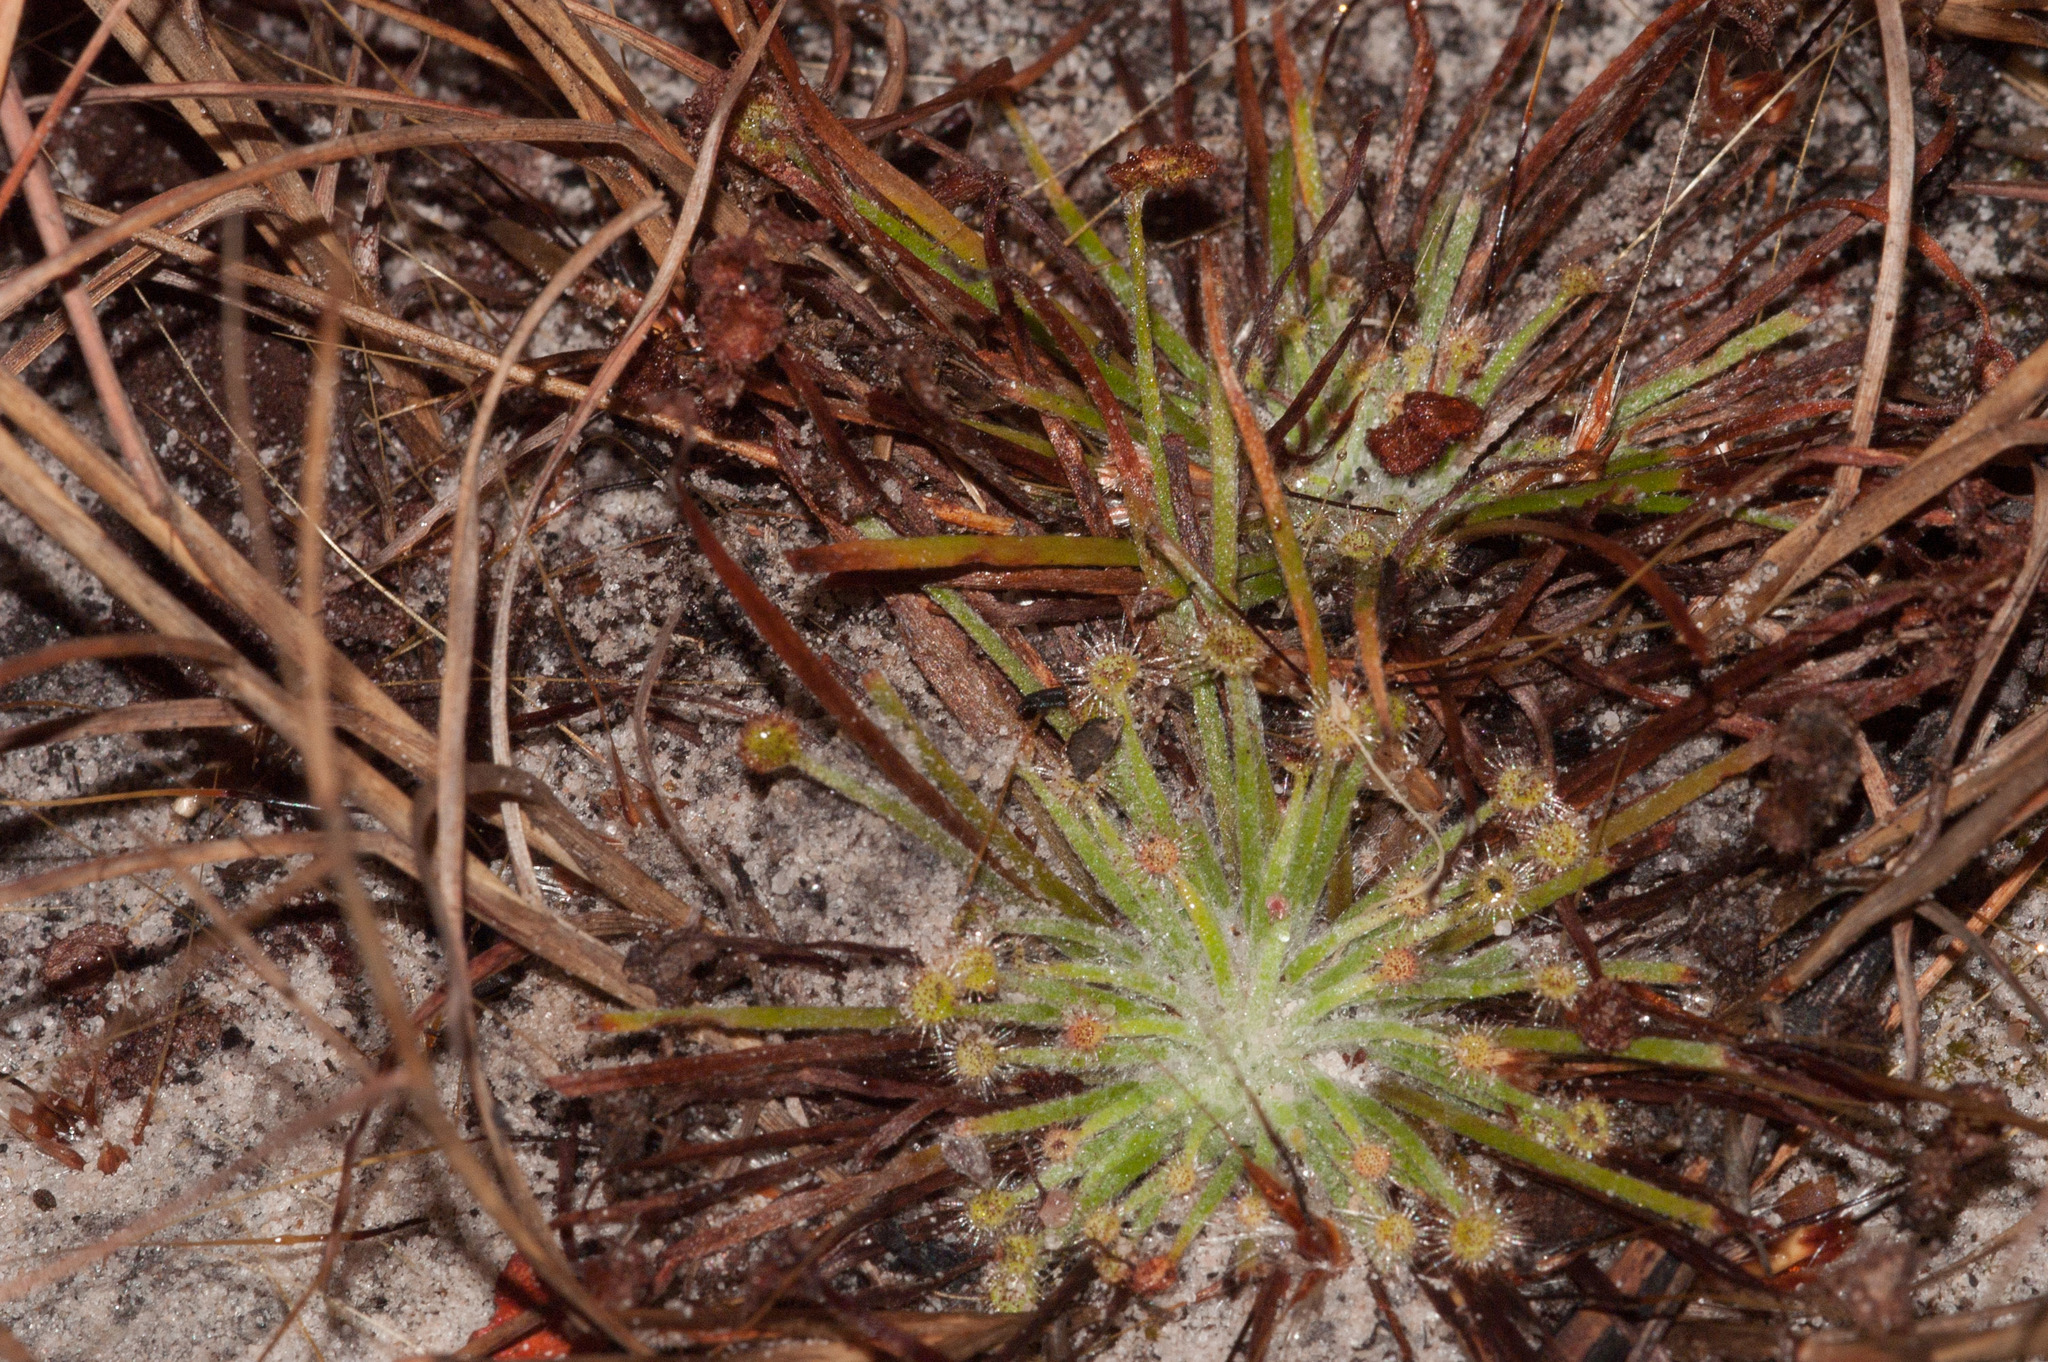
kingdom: Plantae
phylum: Tracheophyta
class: Magnoliopsida
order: Caryophyllales
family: Droseraceae
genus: Drosera
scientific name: Drosera petiolaris
